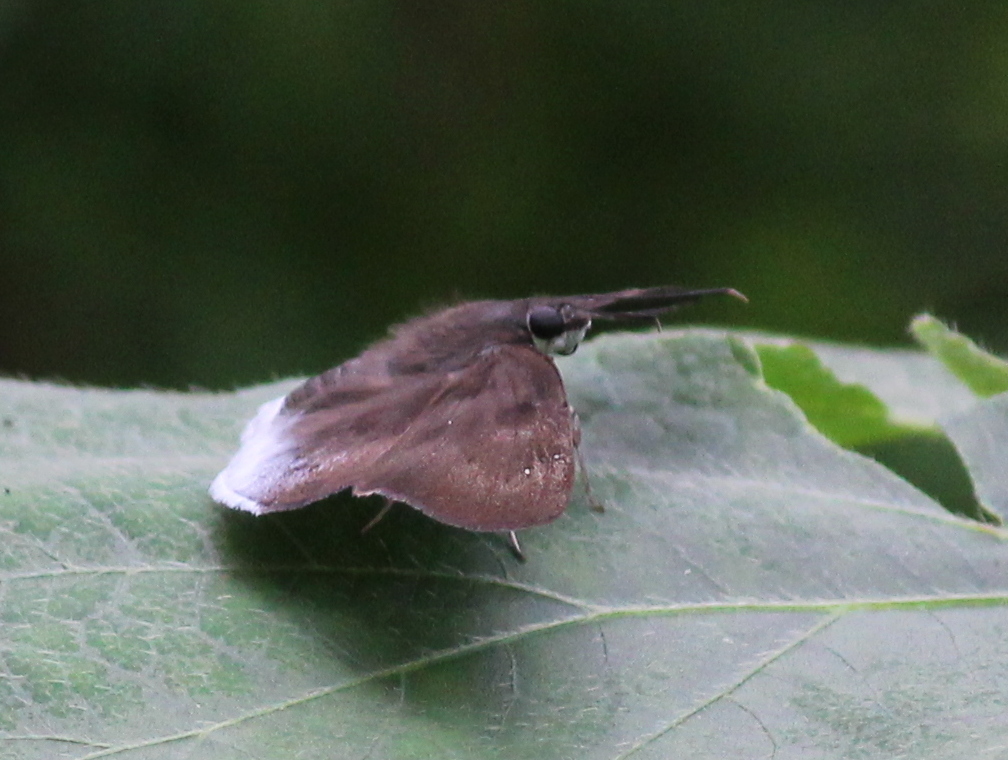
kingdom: Animalia
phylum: Arthropoda
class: Insecta
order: Lepidoptera
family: Hesperiidae
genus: Tagiades
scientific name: Tagiades gana
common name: Suffused snow flat
